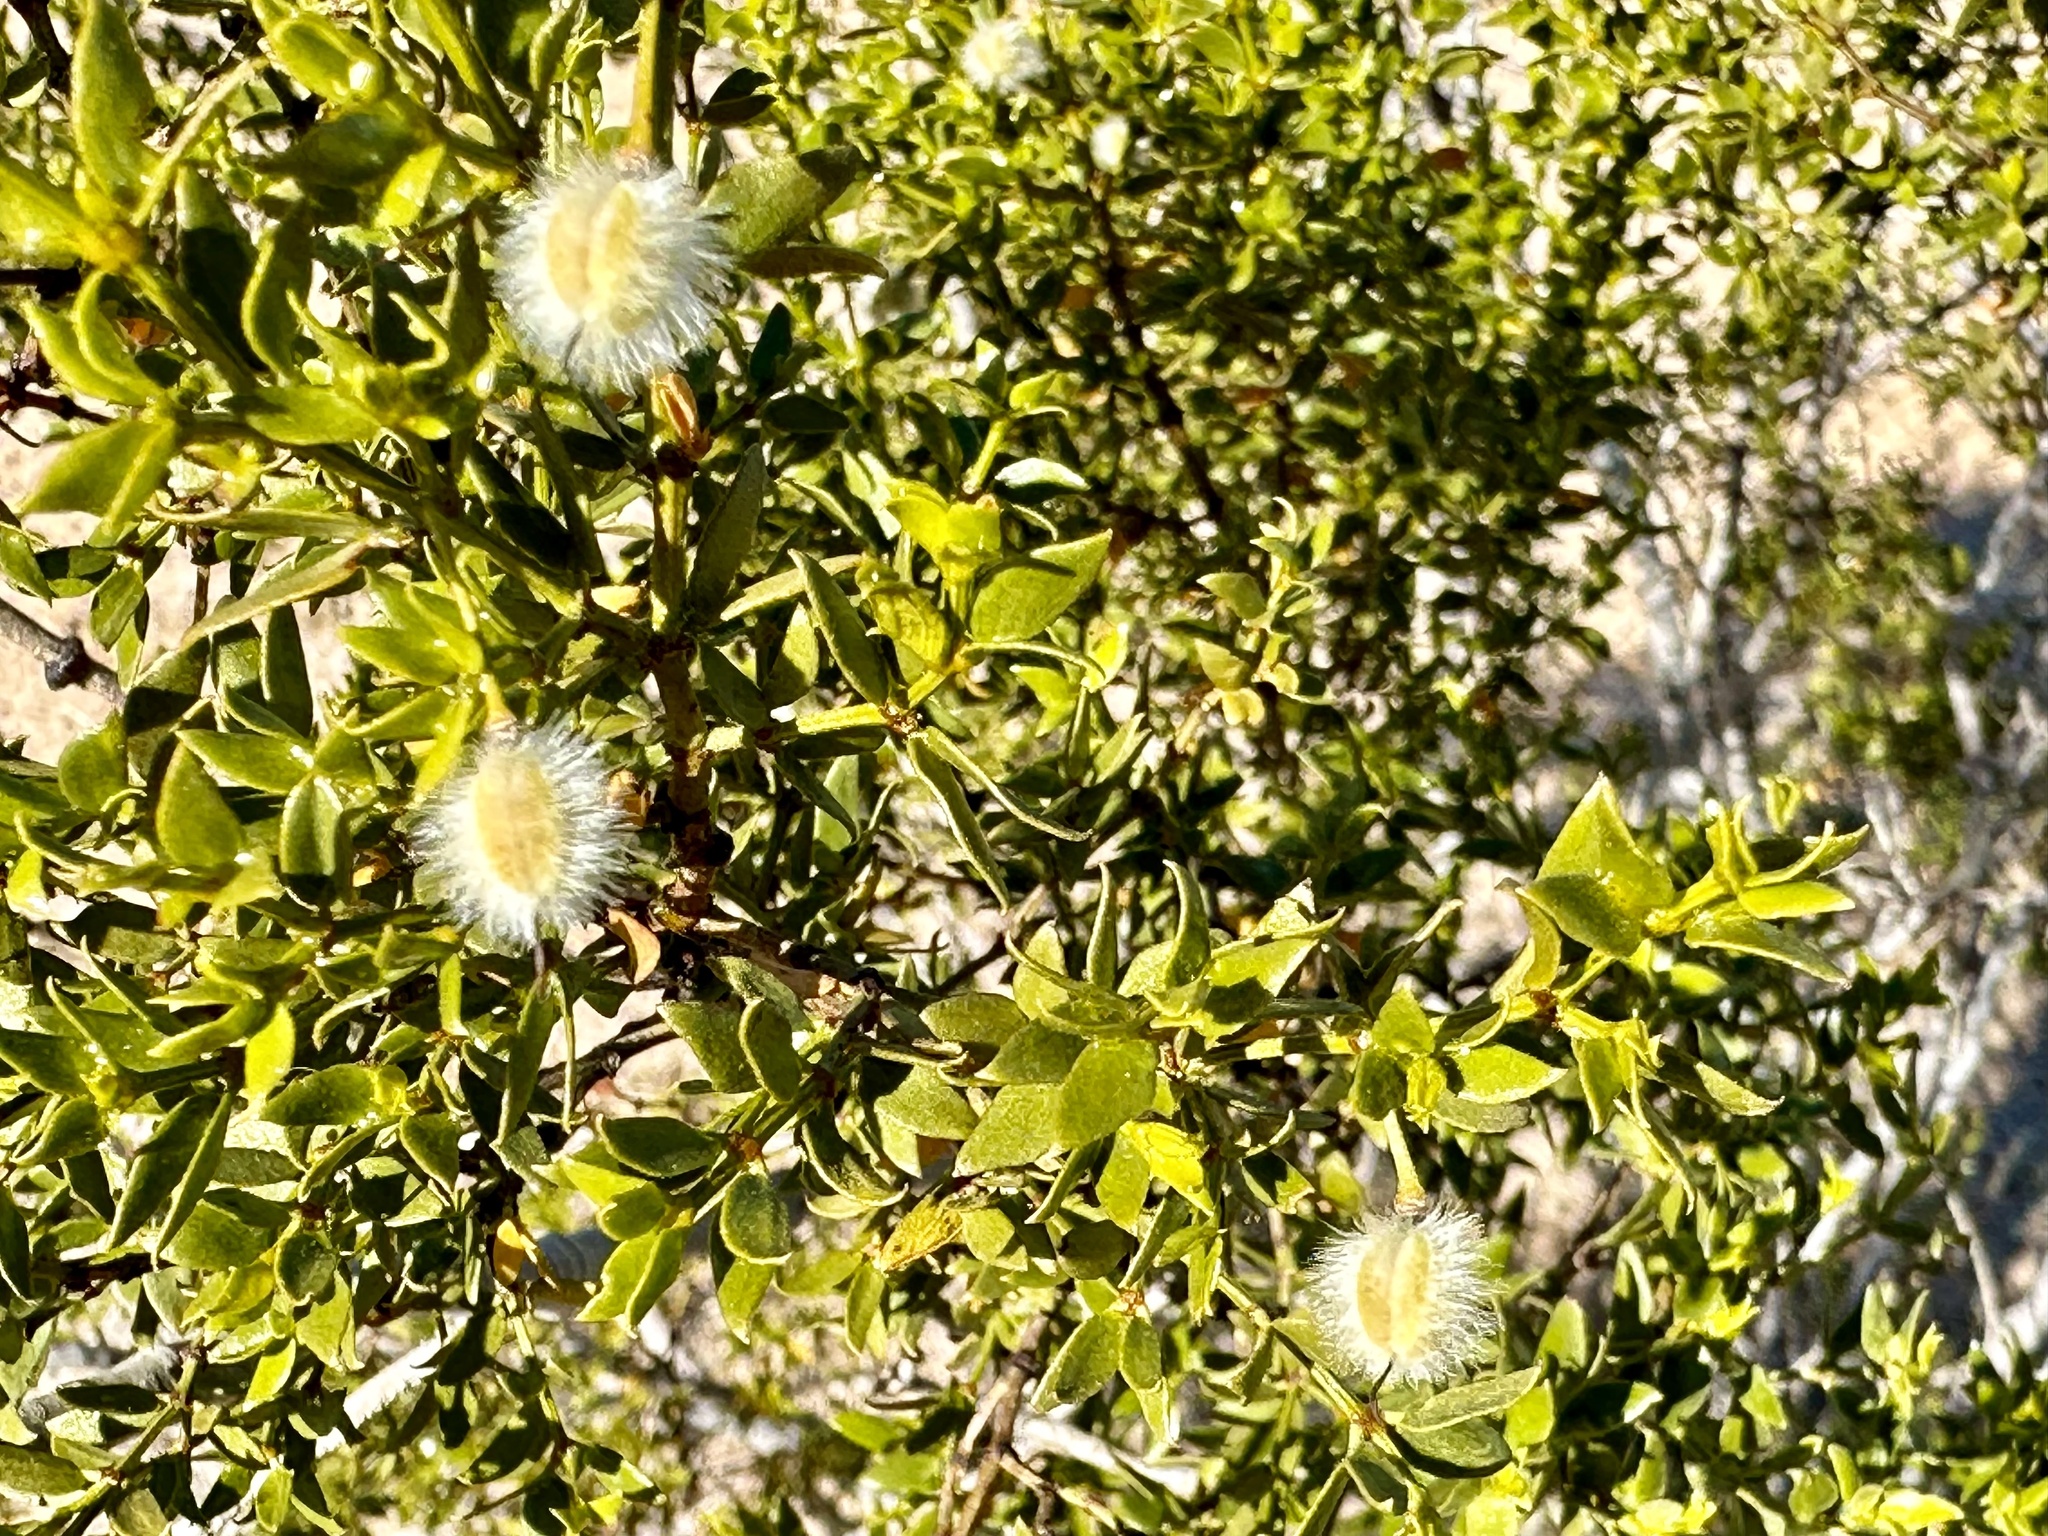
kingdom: Plantae
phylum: Tracheophyta
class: Magnoliopsida
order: Zygophyllales
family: Zygophyllaceae
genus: Larrea
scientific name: Larrea tridentata
